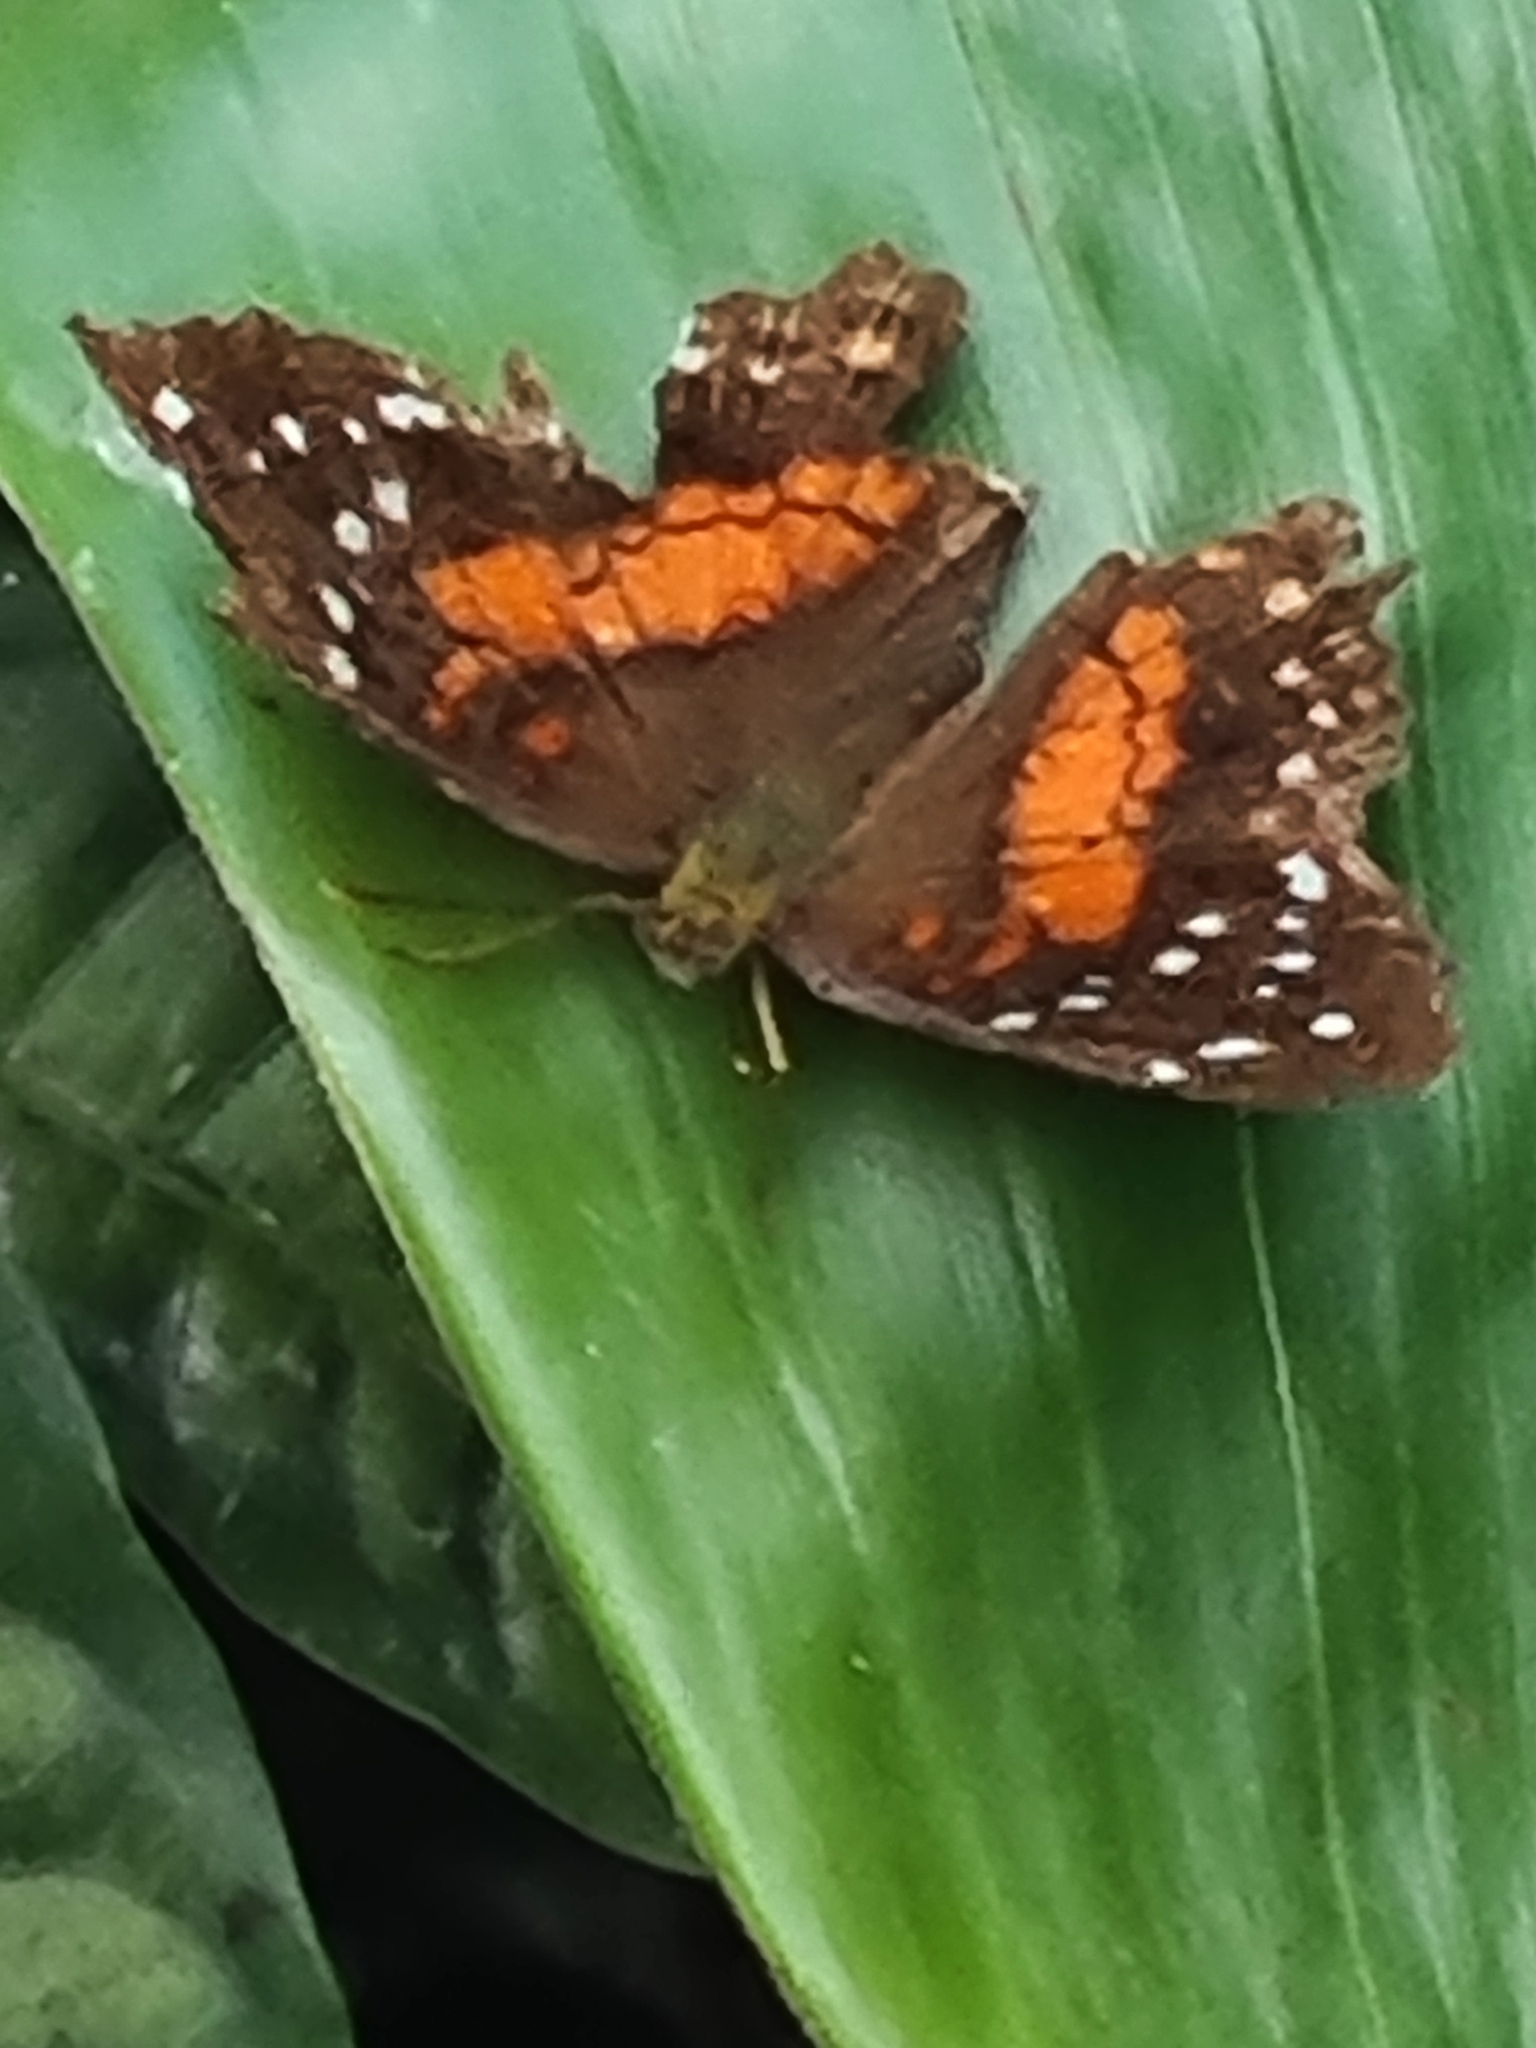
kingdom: Animalia
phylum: Arthropoda
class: Insecta
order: Lepidoptera
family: Nymphalidae
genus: Anartia
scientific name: Anartia amathea
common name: Red peacock
